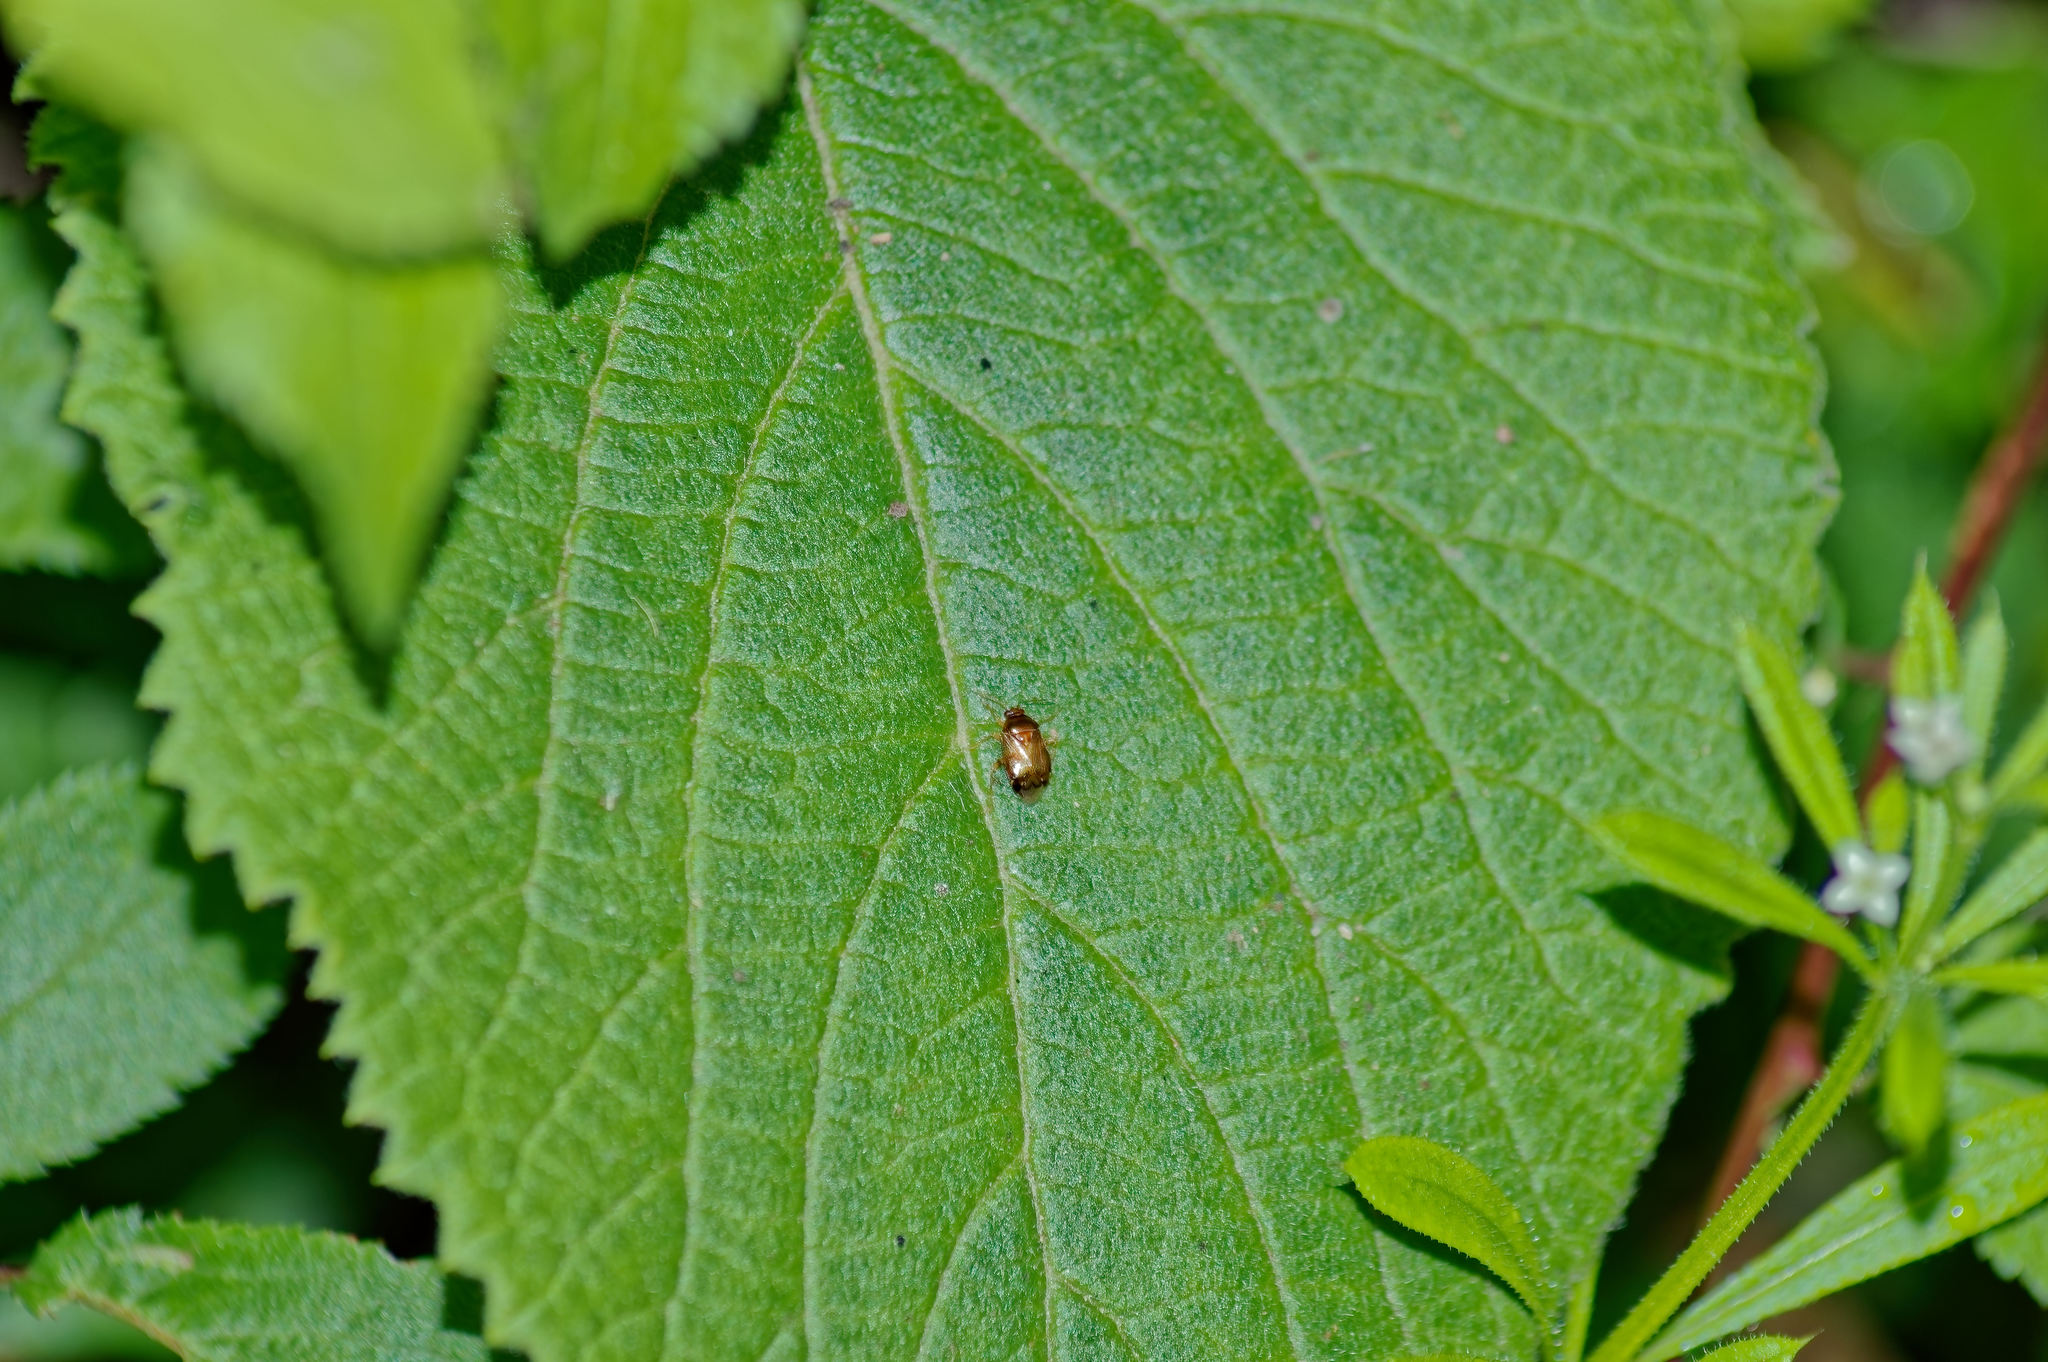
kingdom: Animalia
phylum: Arthropoda
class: Insecta
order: Hemiptera
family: Miridae
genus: Deraeocoris
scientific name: Deraeocoris lutescens
